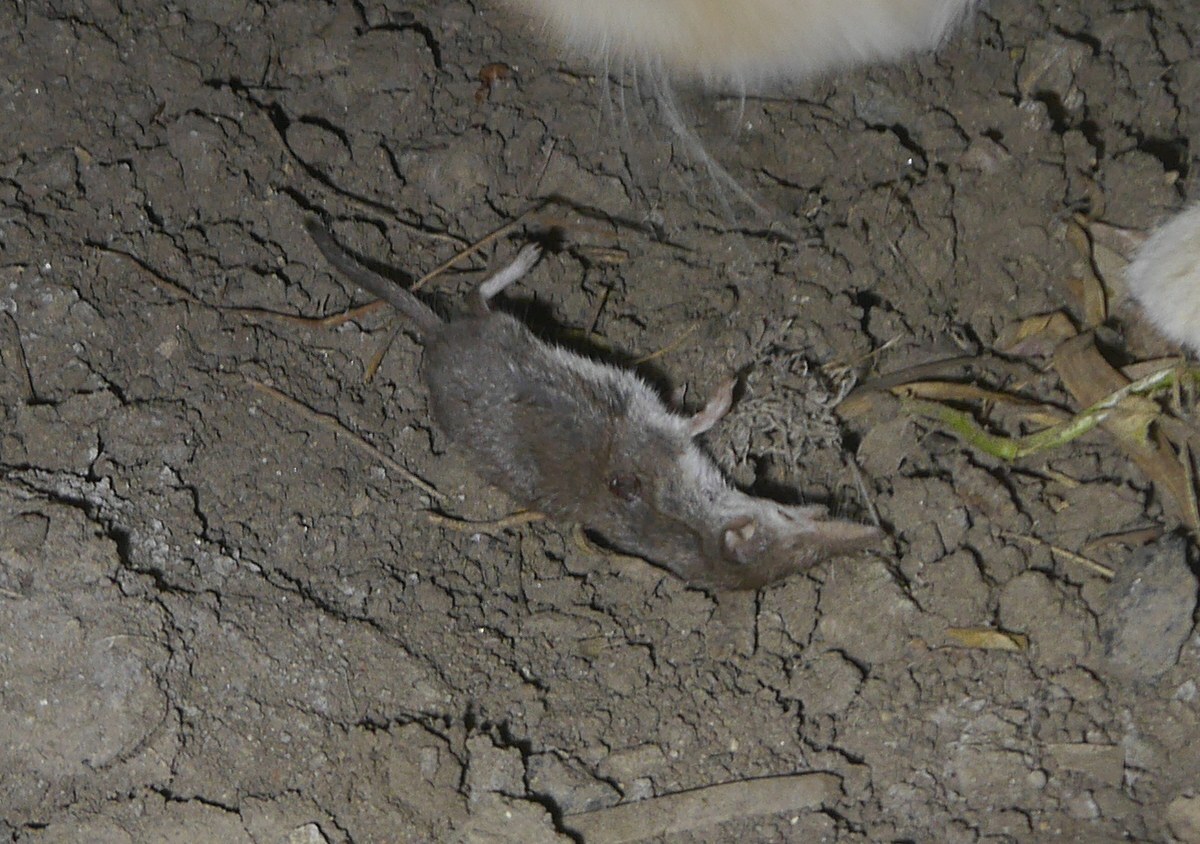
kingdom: Animalia
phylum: Chordata
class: Mammalia
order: Soricomorpha
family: Soricidae
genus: Crocidura
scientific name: Crocidura suaveolens
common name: Lesser white-toothed shrew
